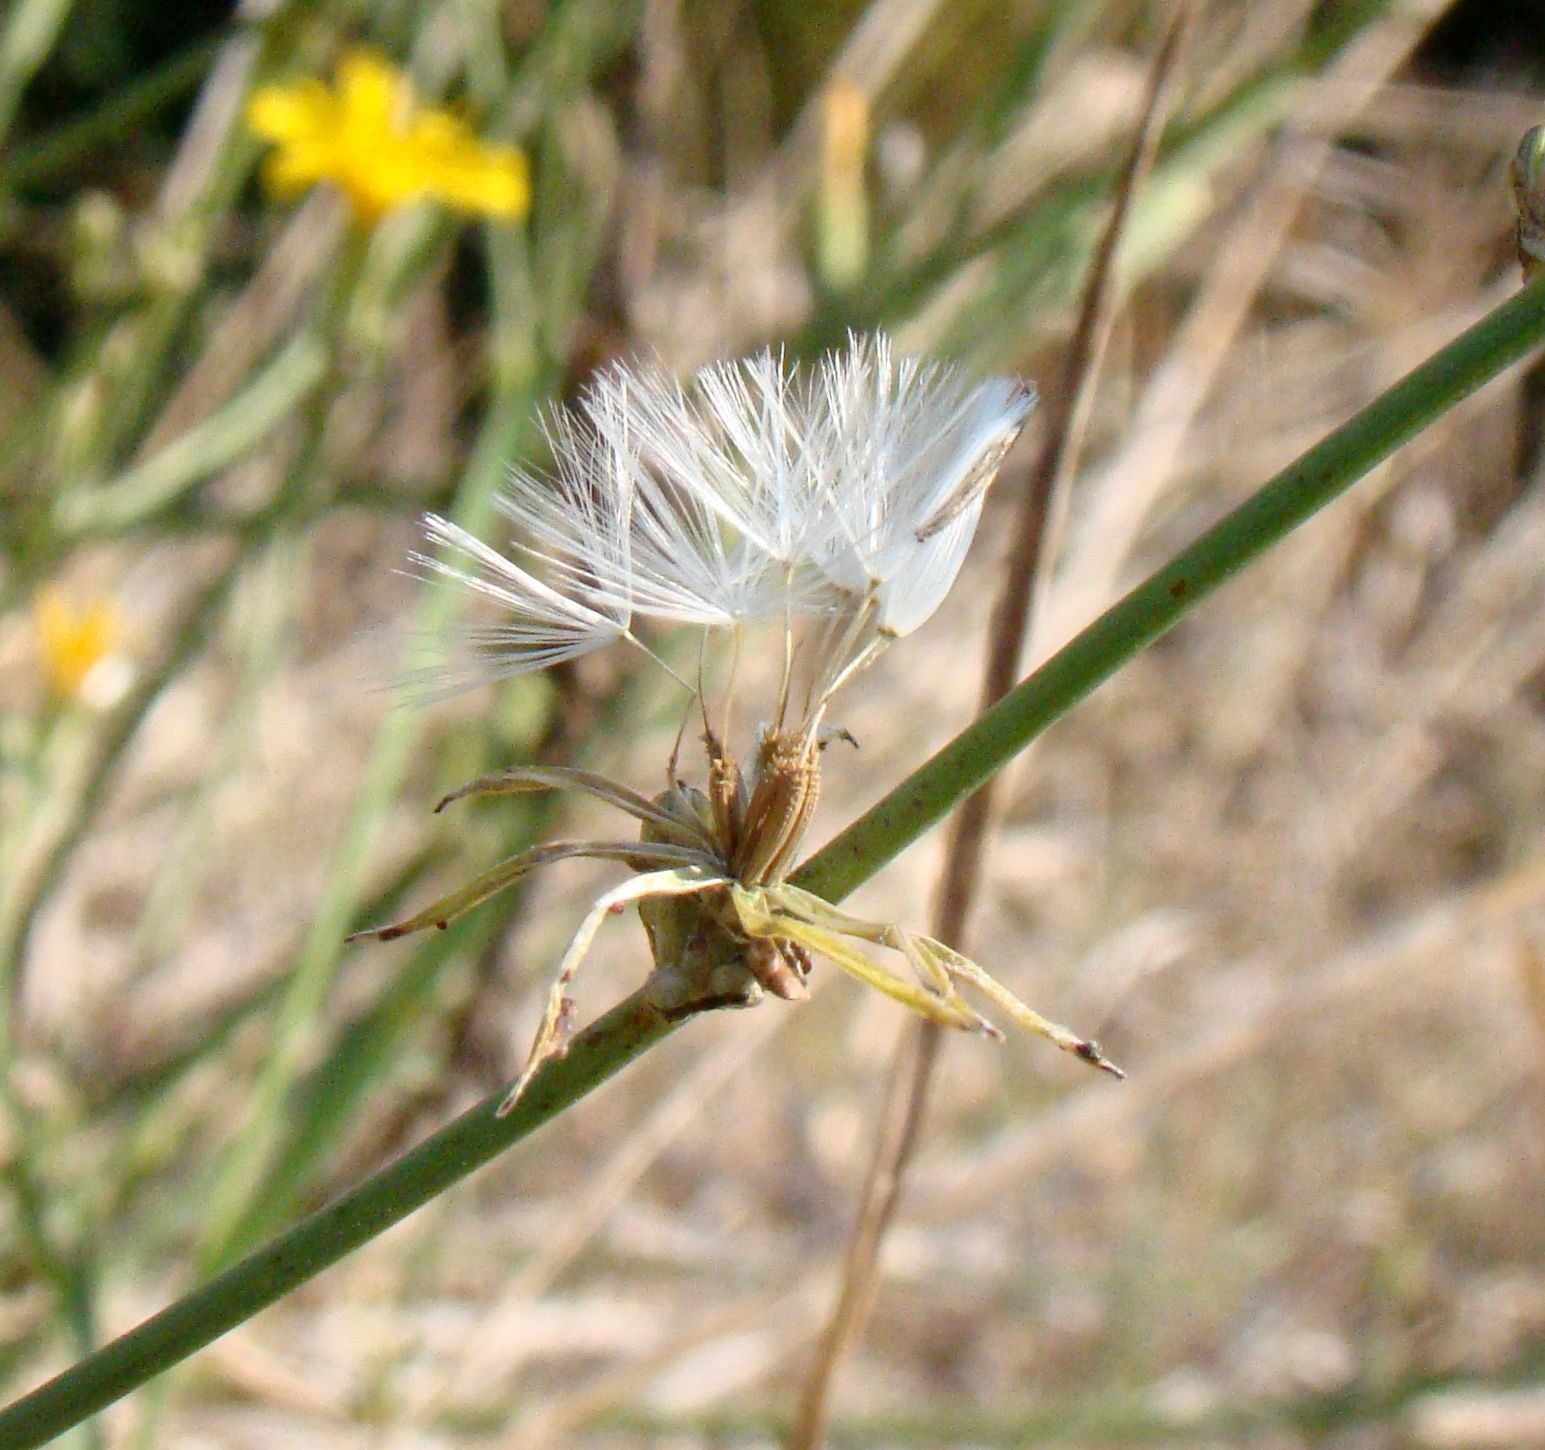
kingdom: Plantae
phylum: Tracheophyta
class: Magnoliopsida
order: Asterales
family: Asteraceae
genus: Chondrilla
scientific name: Chondrilla juncea
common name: Skeleton weed
